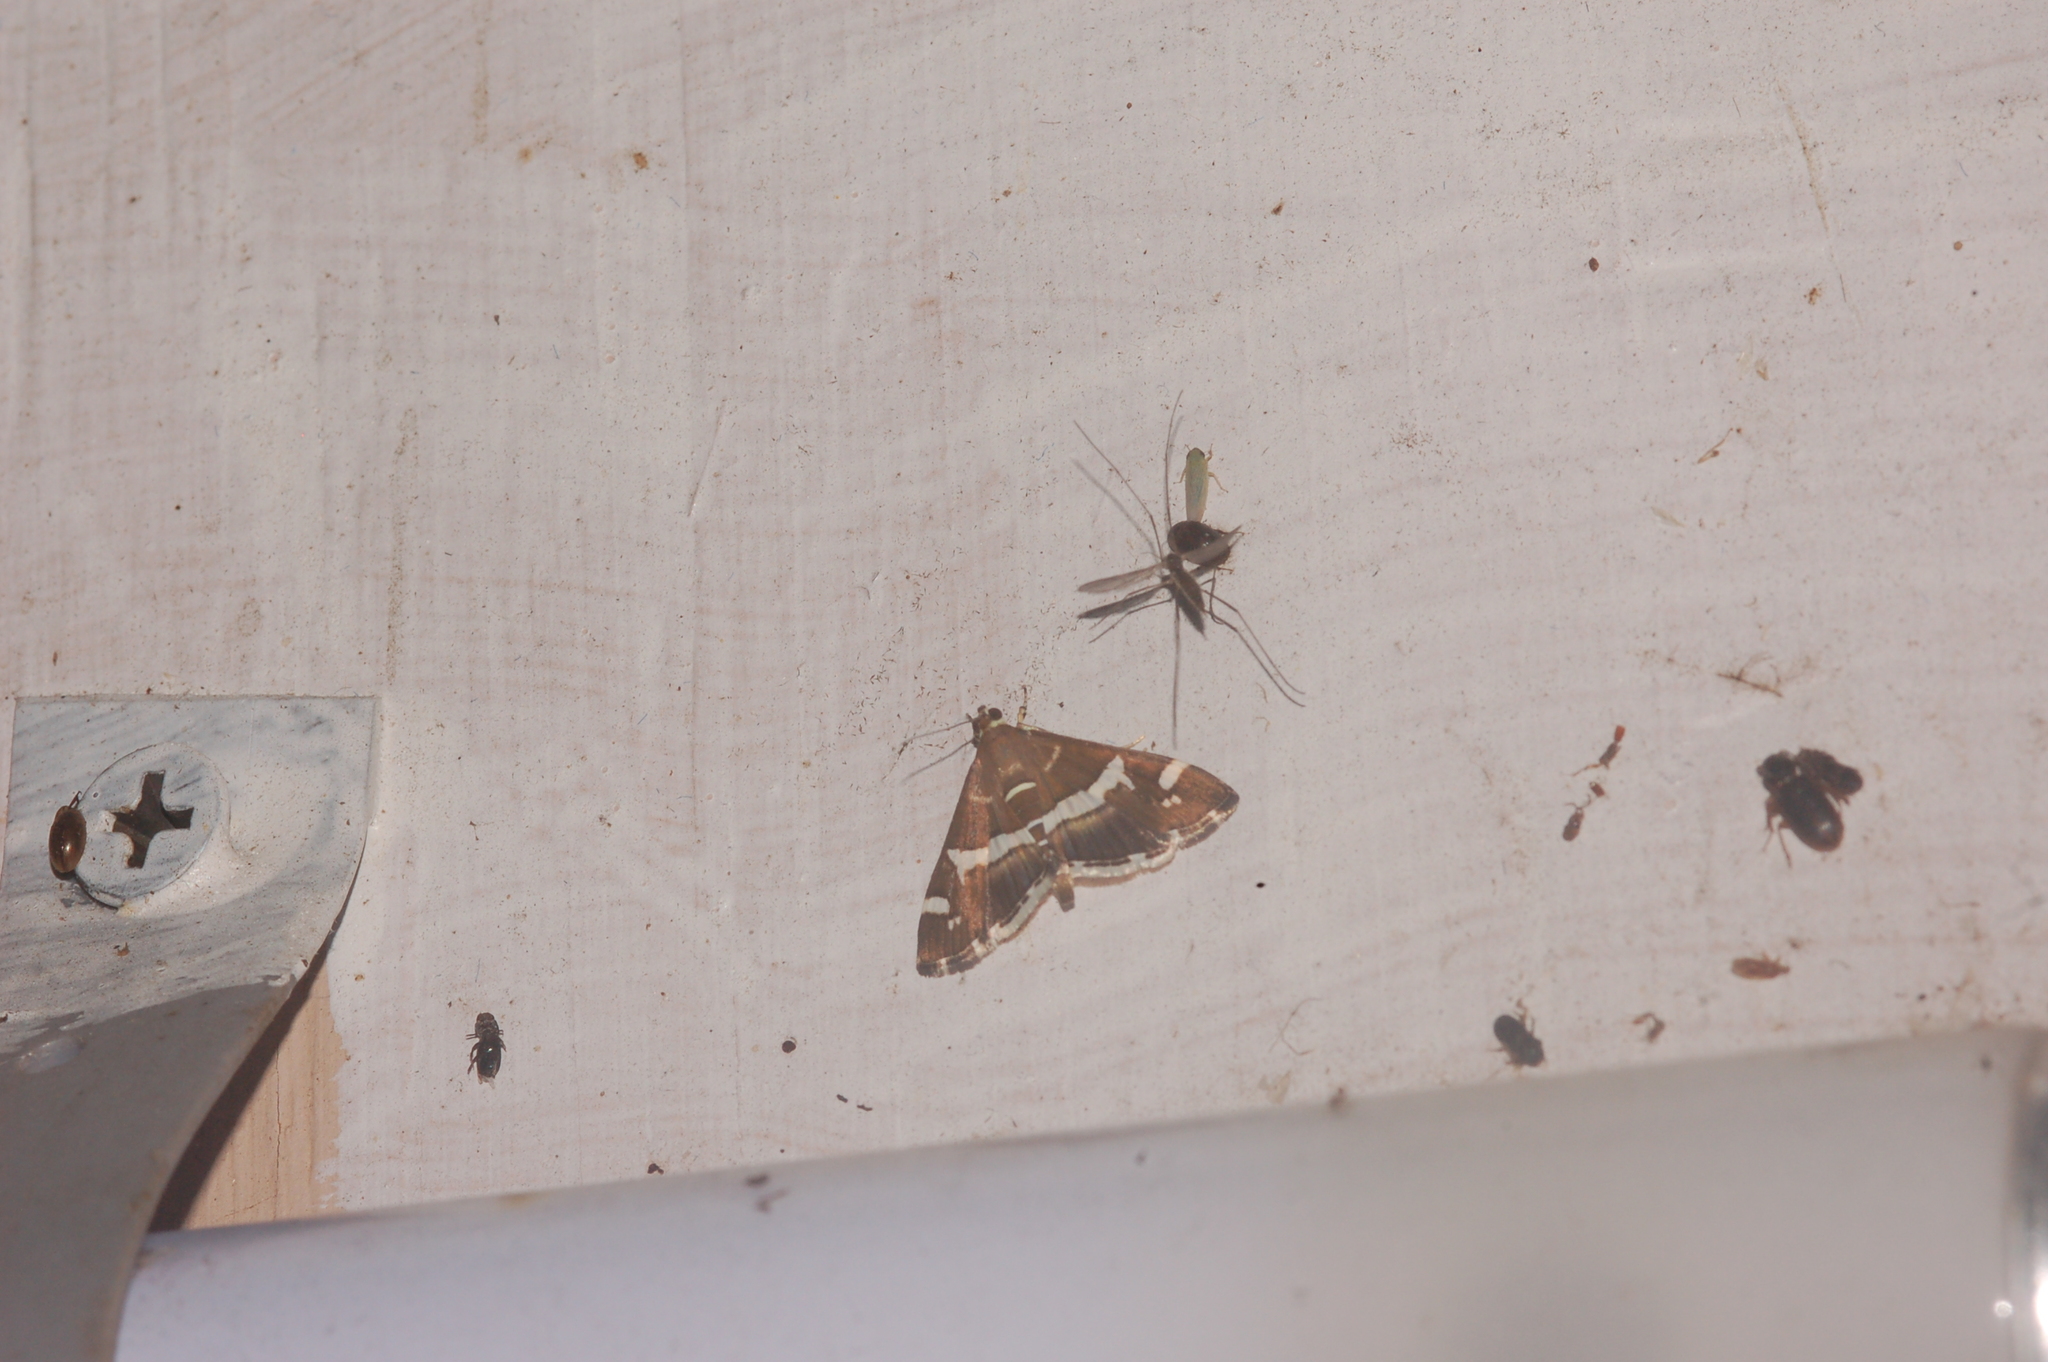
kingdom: Animalia
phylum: Arthropoda
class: Insecta
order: Lepidoptera
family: Crambidae
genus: Spoladea
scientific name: Spoladea recurvalis
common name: Beet webworm moth
